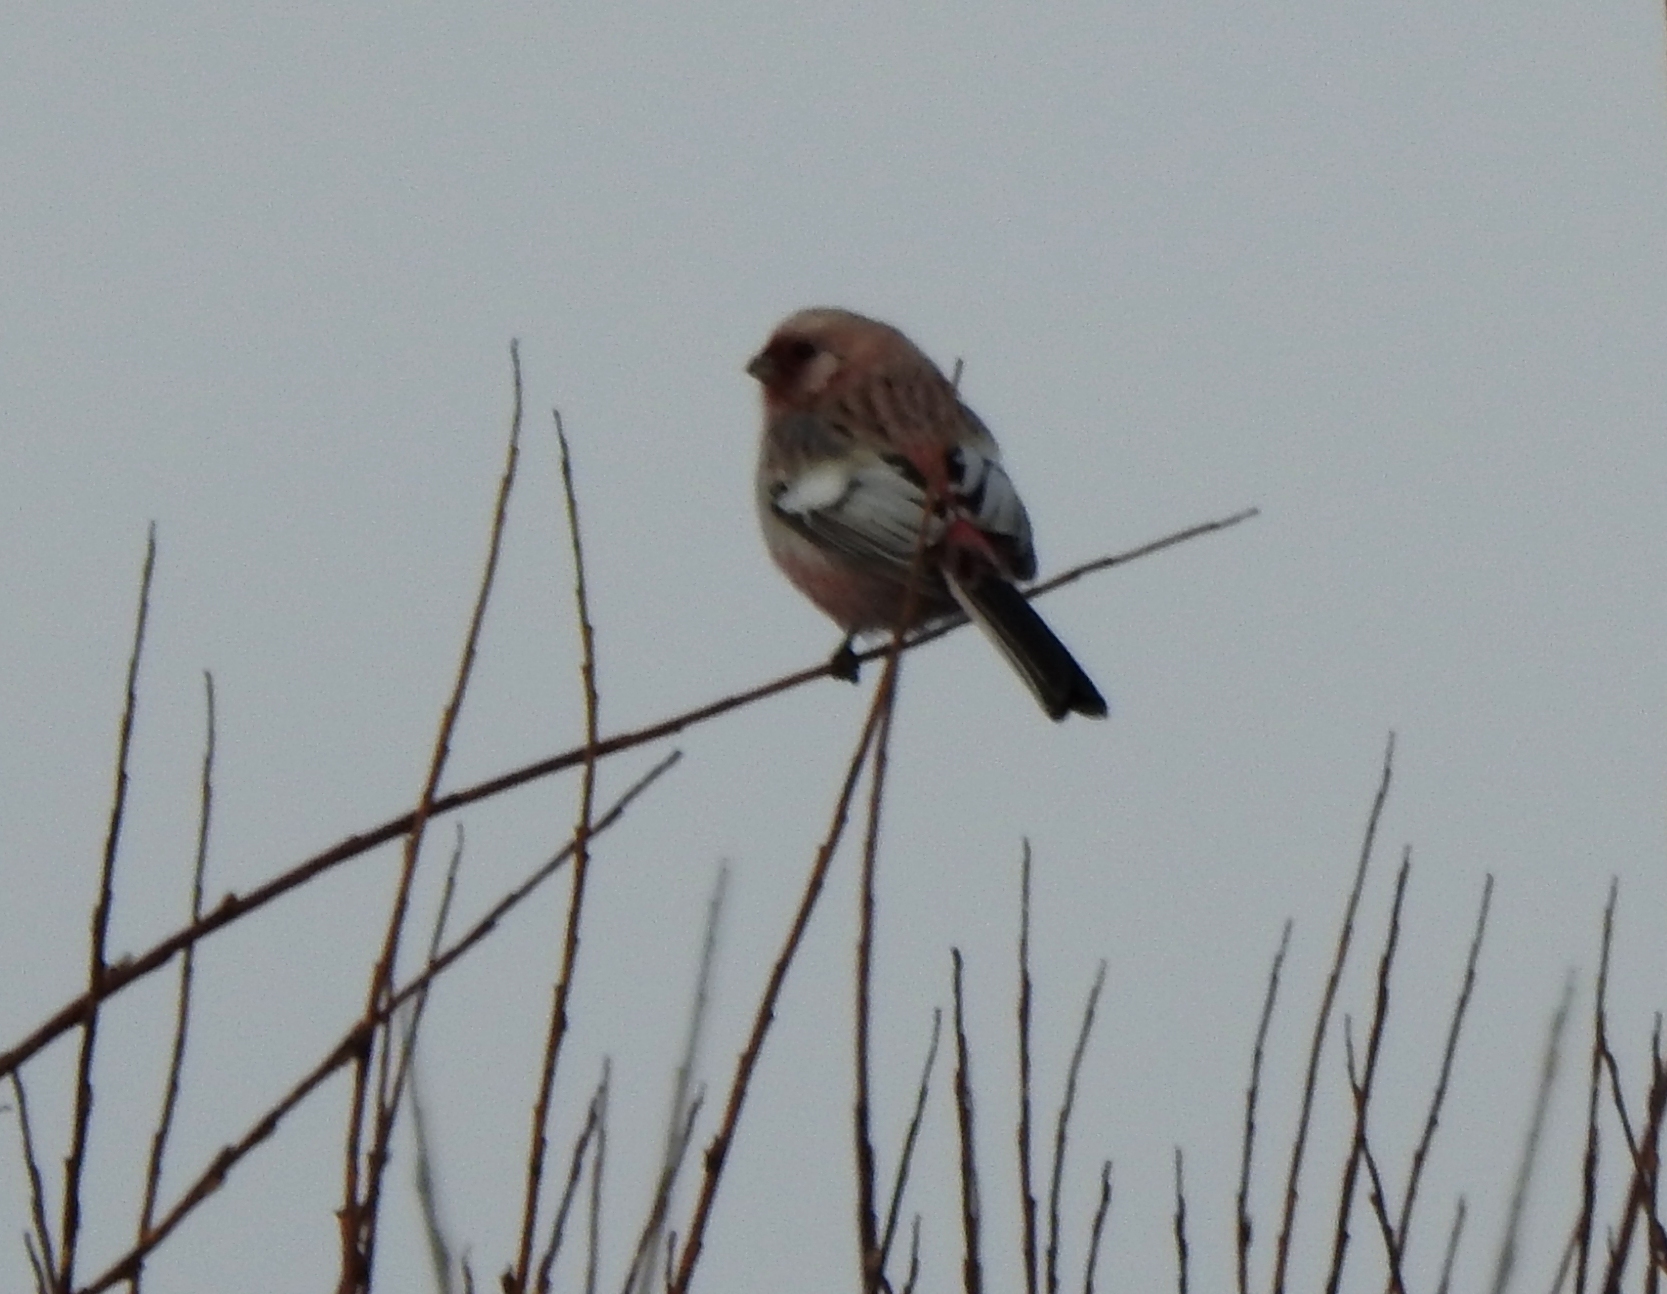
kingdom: Animalia
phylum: Chordata
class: Aves
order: Passeriformes
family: Fringillidae
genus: Carpodacus
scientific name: Carpodacus sibiricus
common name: Long-tailed rosefinch
